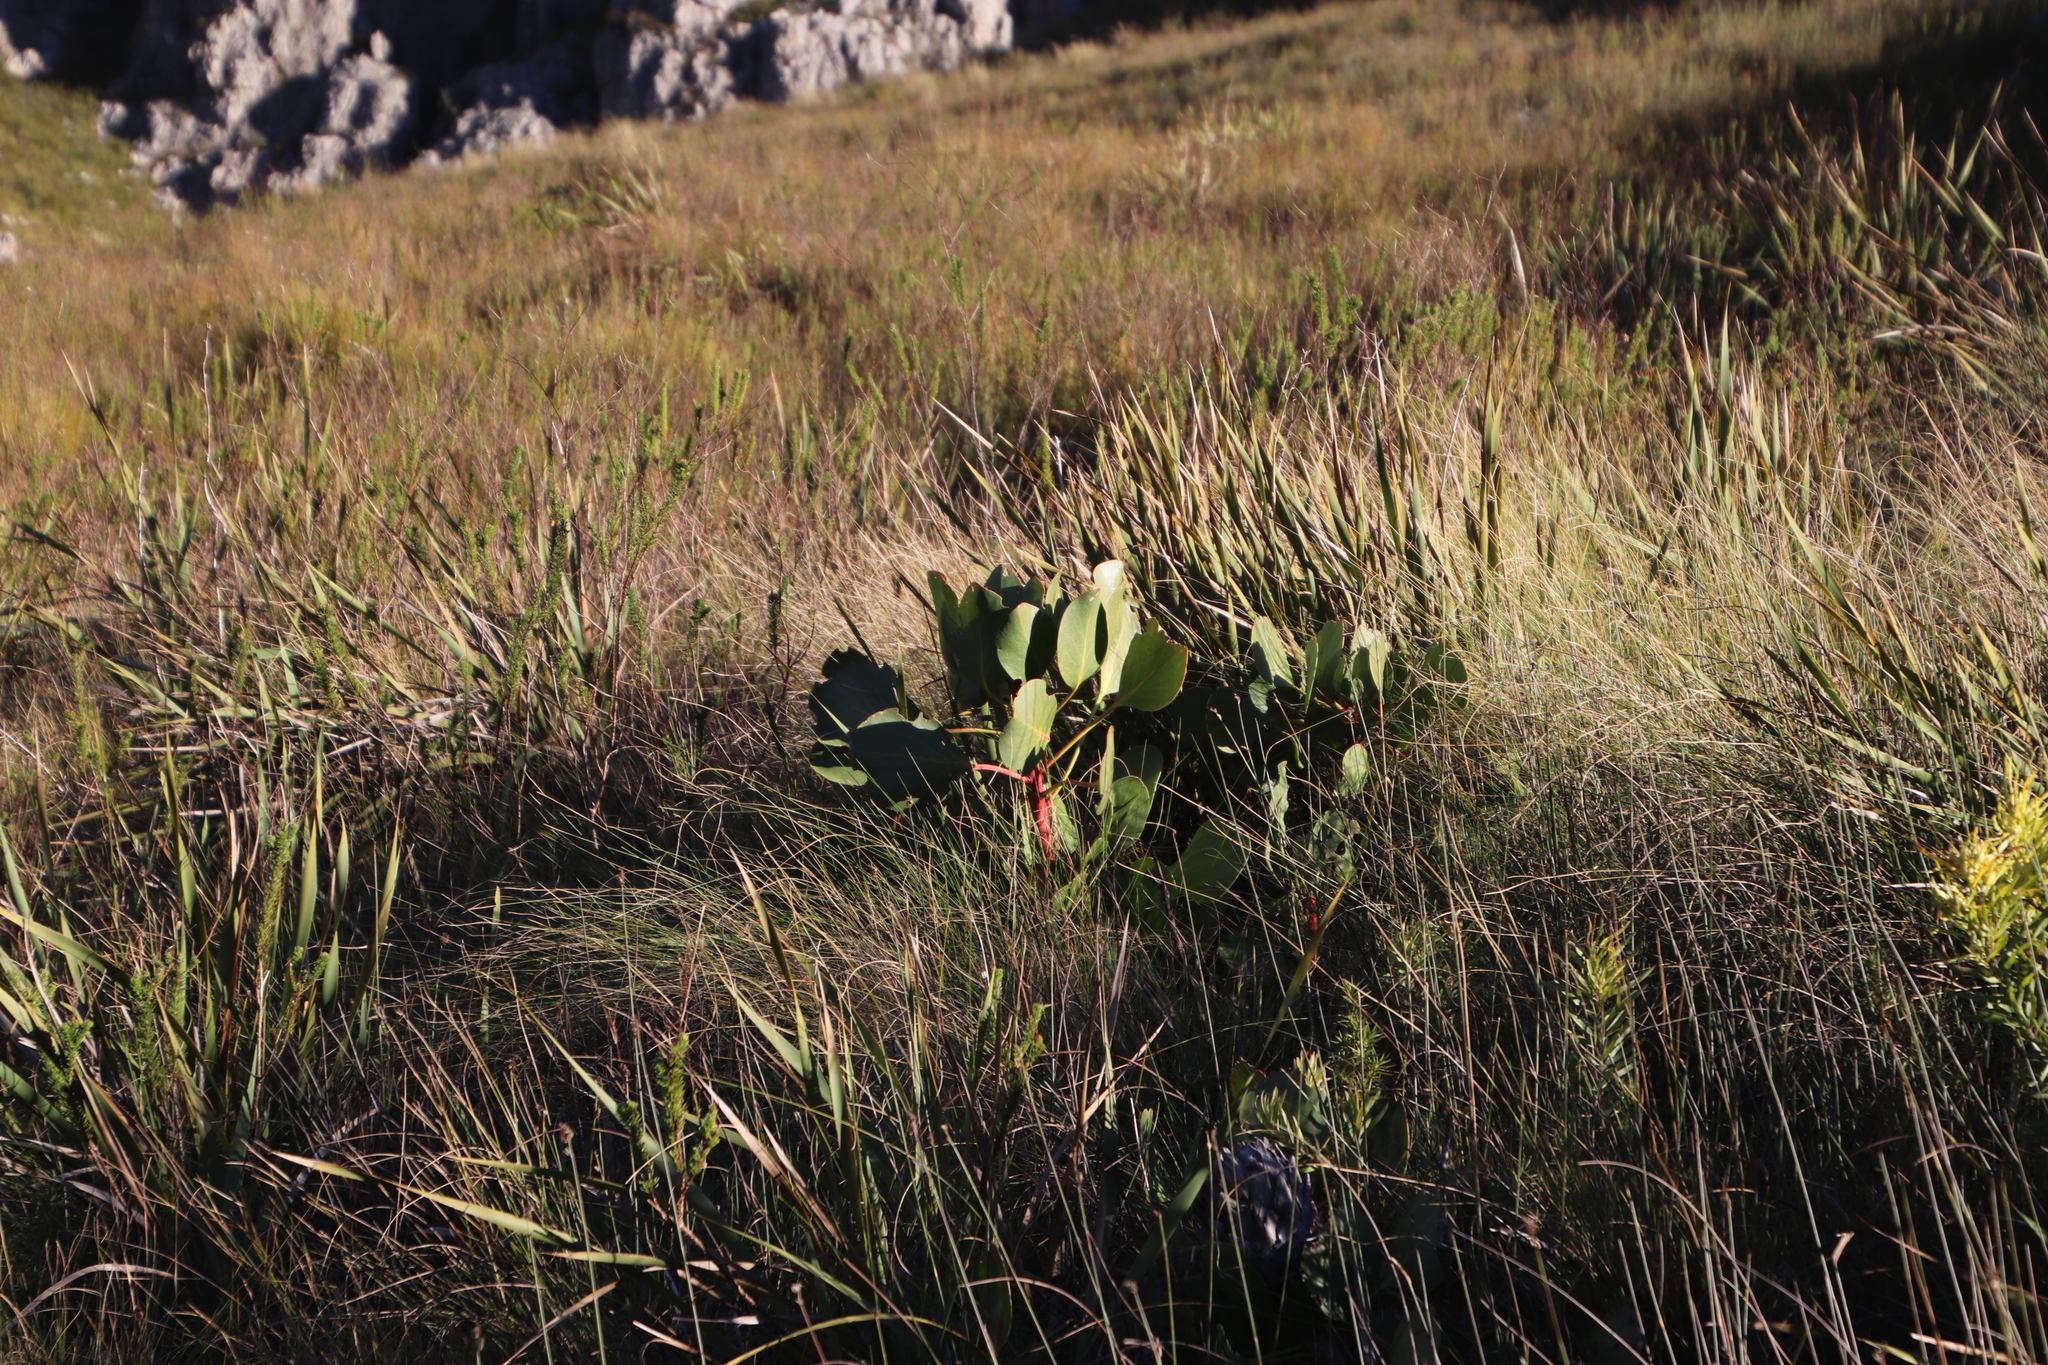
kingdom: Plantae
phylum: Tracheophyta
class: Magnoliopsida
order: Proteales
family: Proteaceae
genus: Protea
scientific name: Protea cynaroides
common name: King protea
